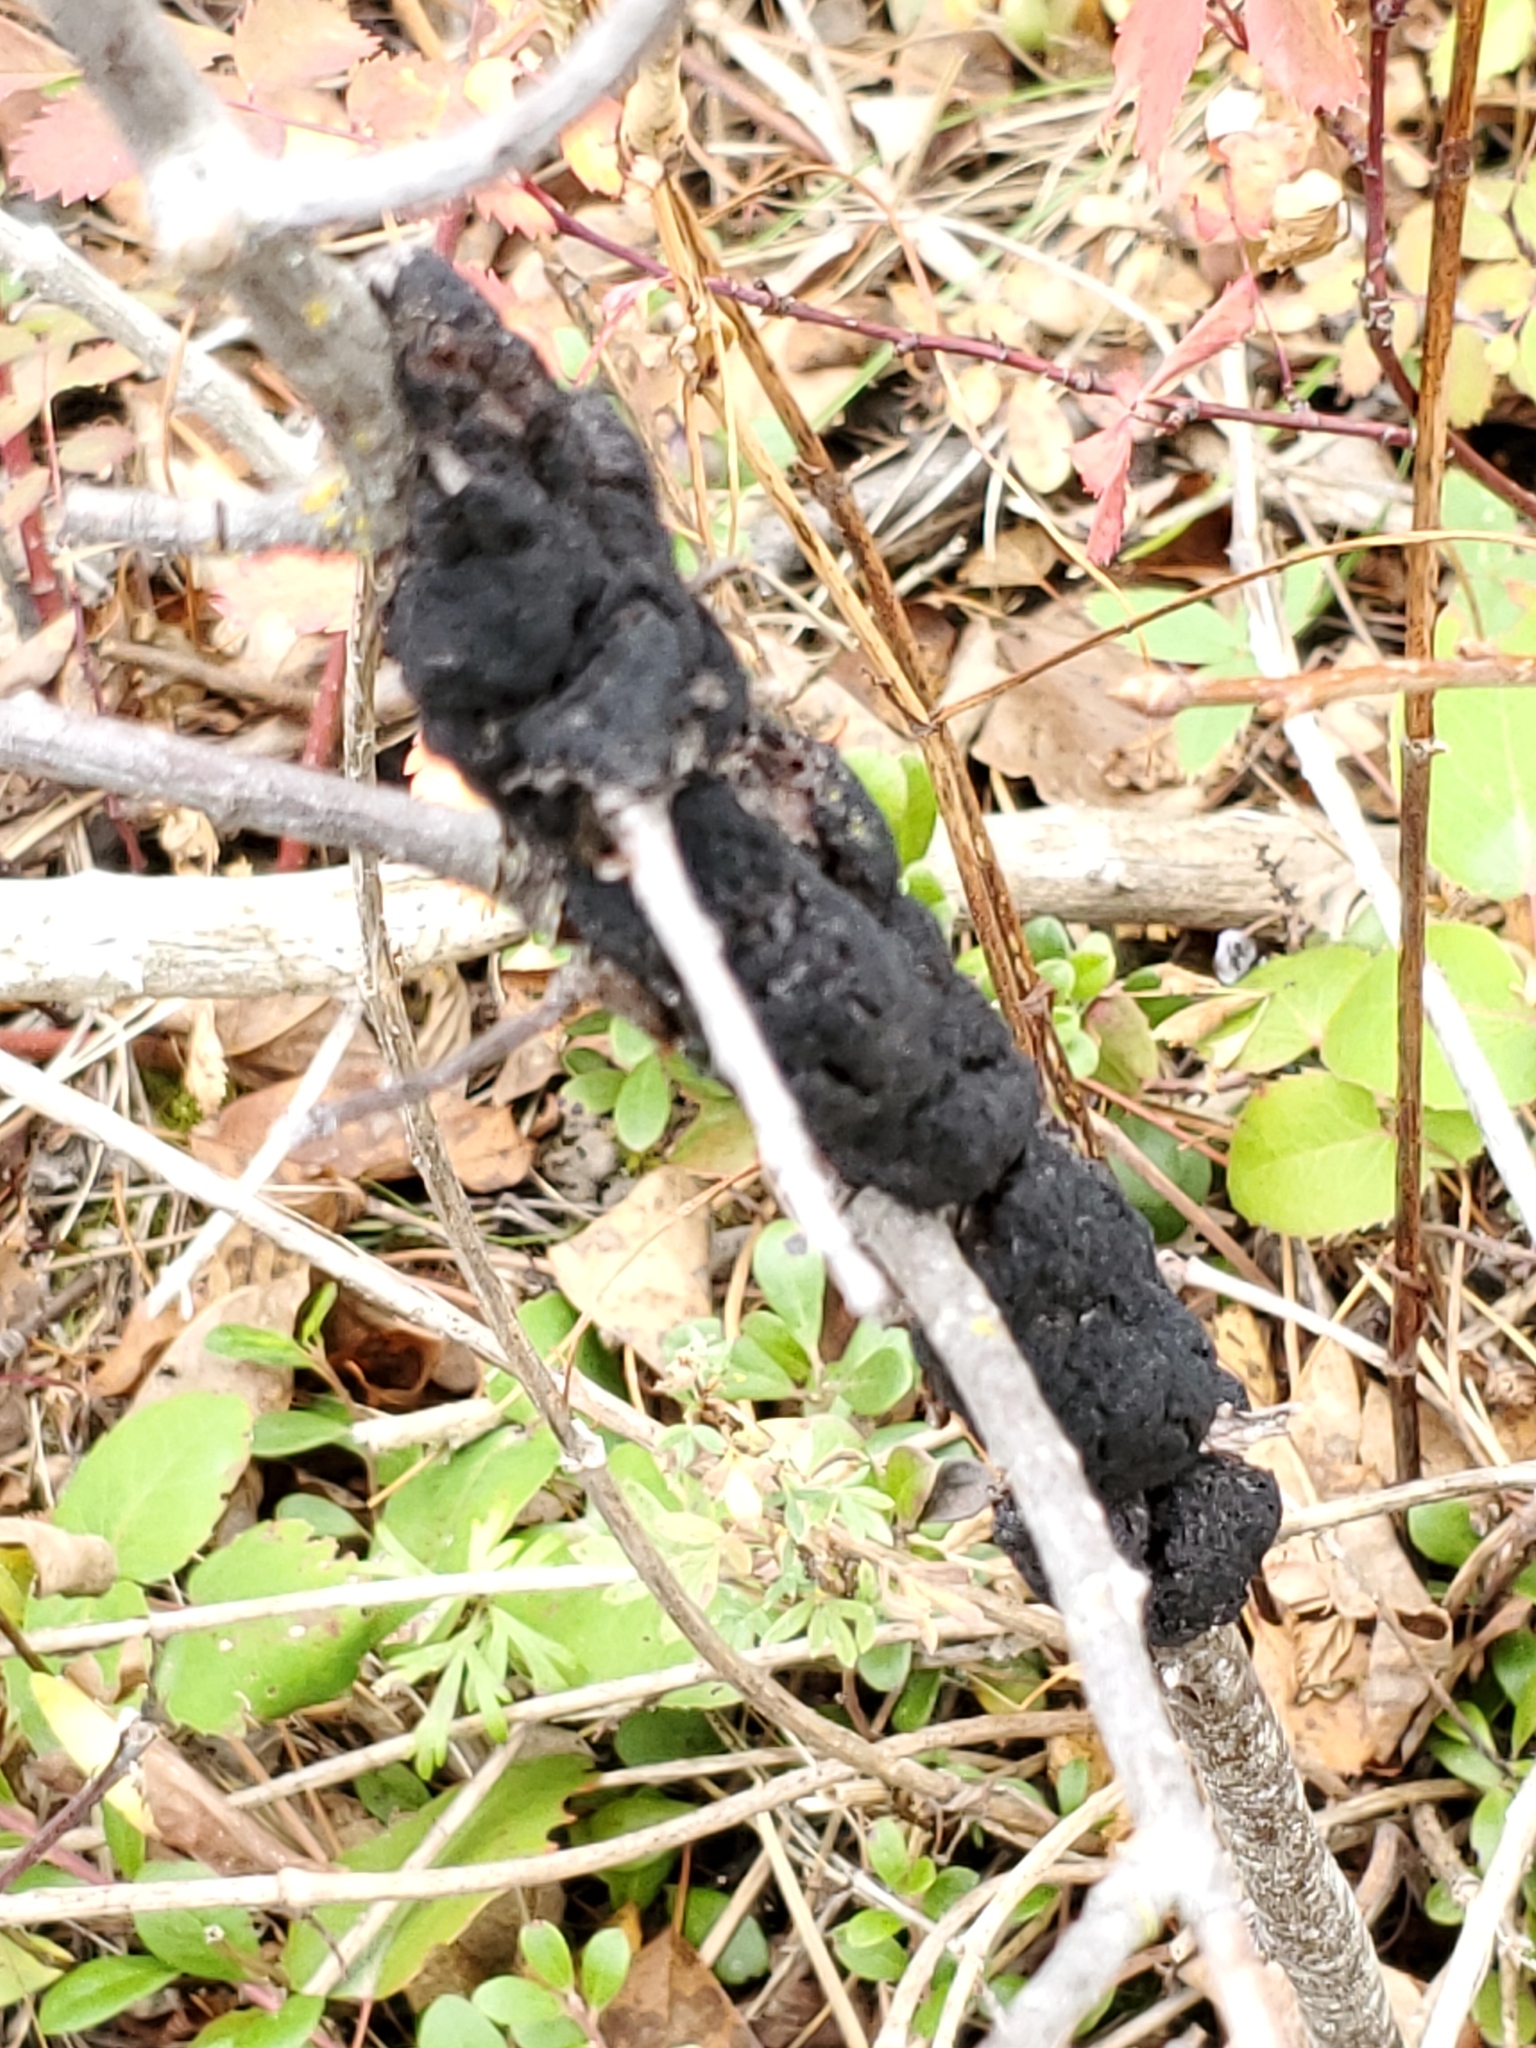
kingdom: Fungi
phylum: Ascomycota
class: Dothideomycetes
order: Venturiales
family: Venturiaceae
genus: Apiosporina
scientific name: Apiosporina morbosa
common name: Black knot
